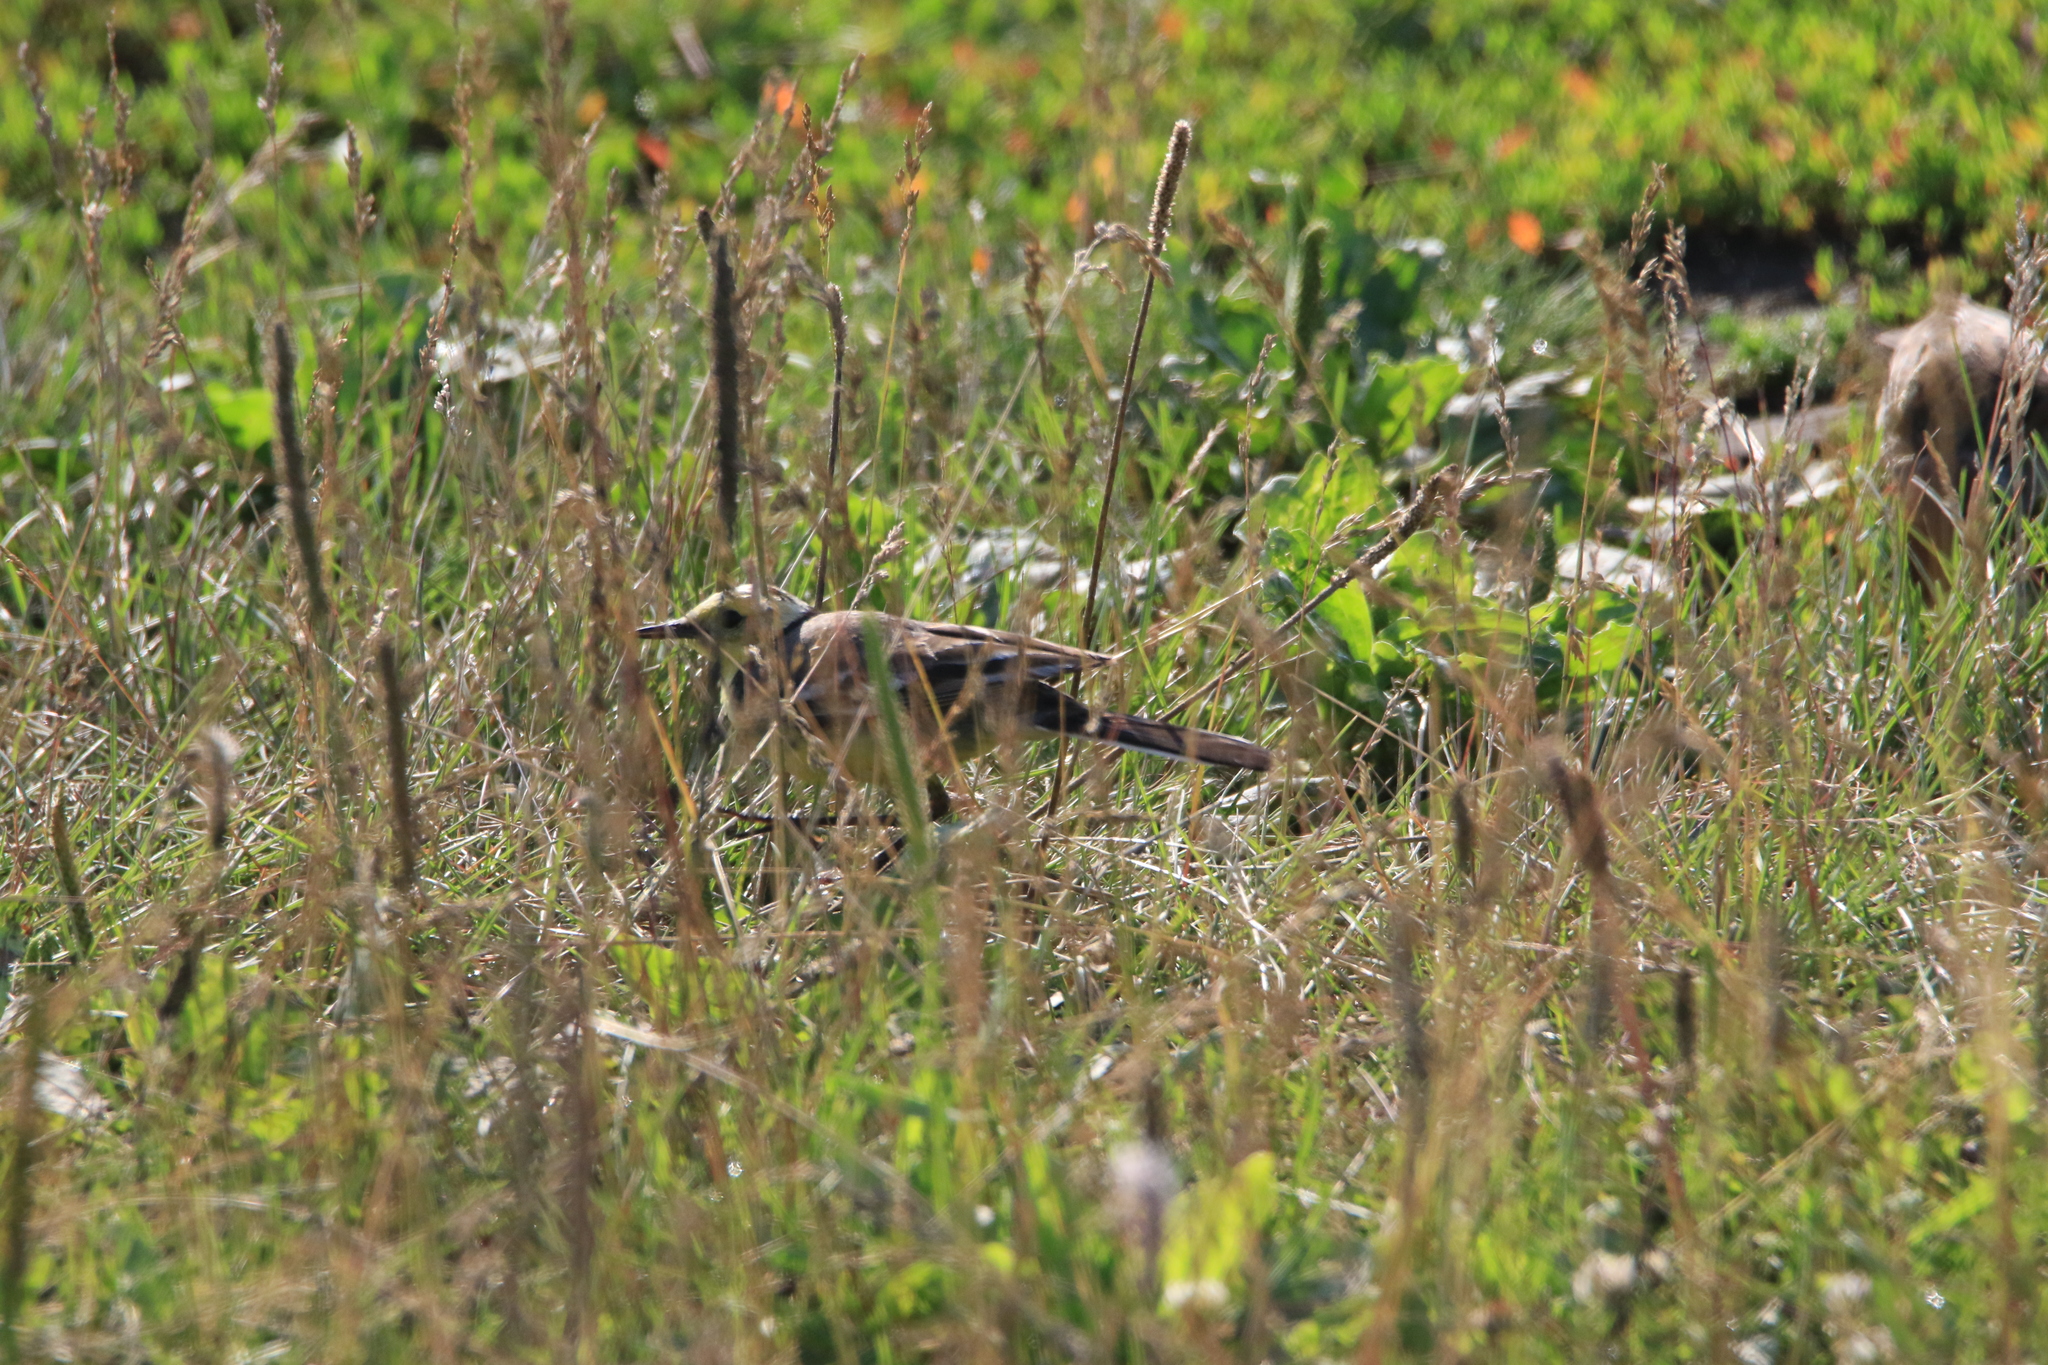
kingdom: Animalia
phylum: Chordata
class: Aves
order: Passeriformes
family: Motacillidae
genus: Motacilla
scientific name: Motacilla citreola
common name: Citrine wagtail
